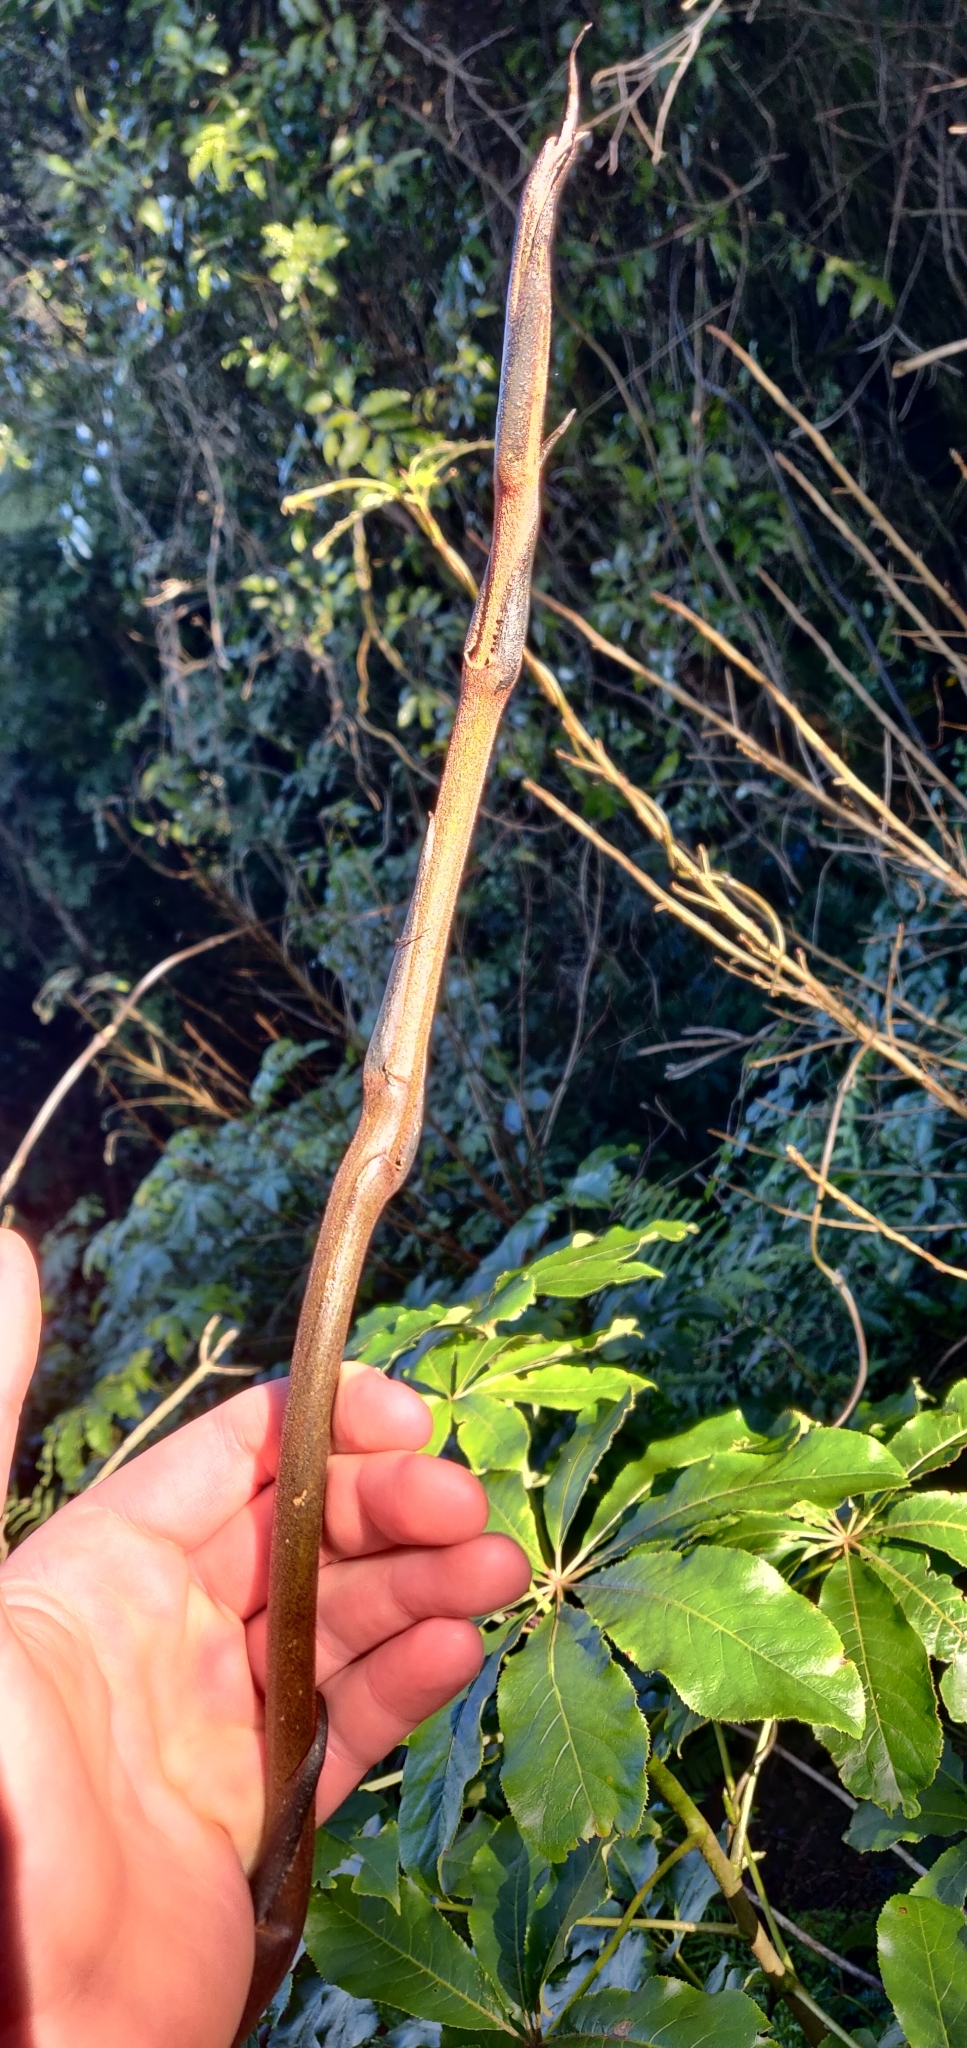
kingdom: Plantae
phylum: Tracheophyta
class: Liliopsida
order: Liliales
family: Ripogonaceae
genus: Ripogonum
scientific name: Ripogonum scandens
